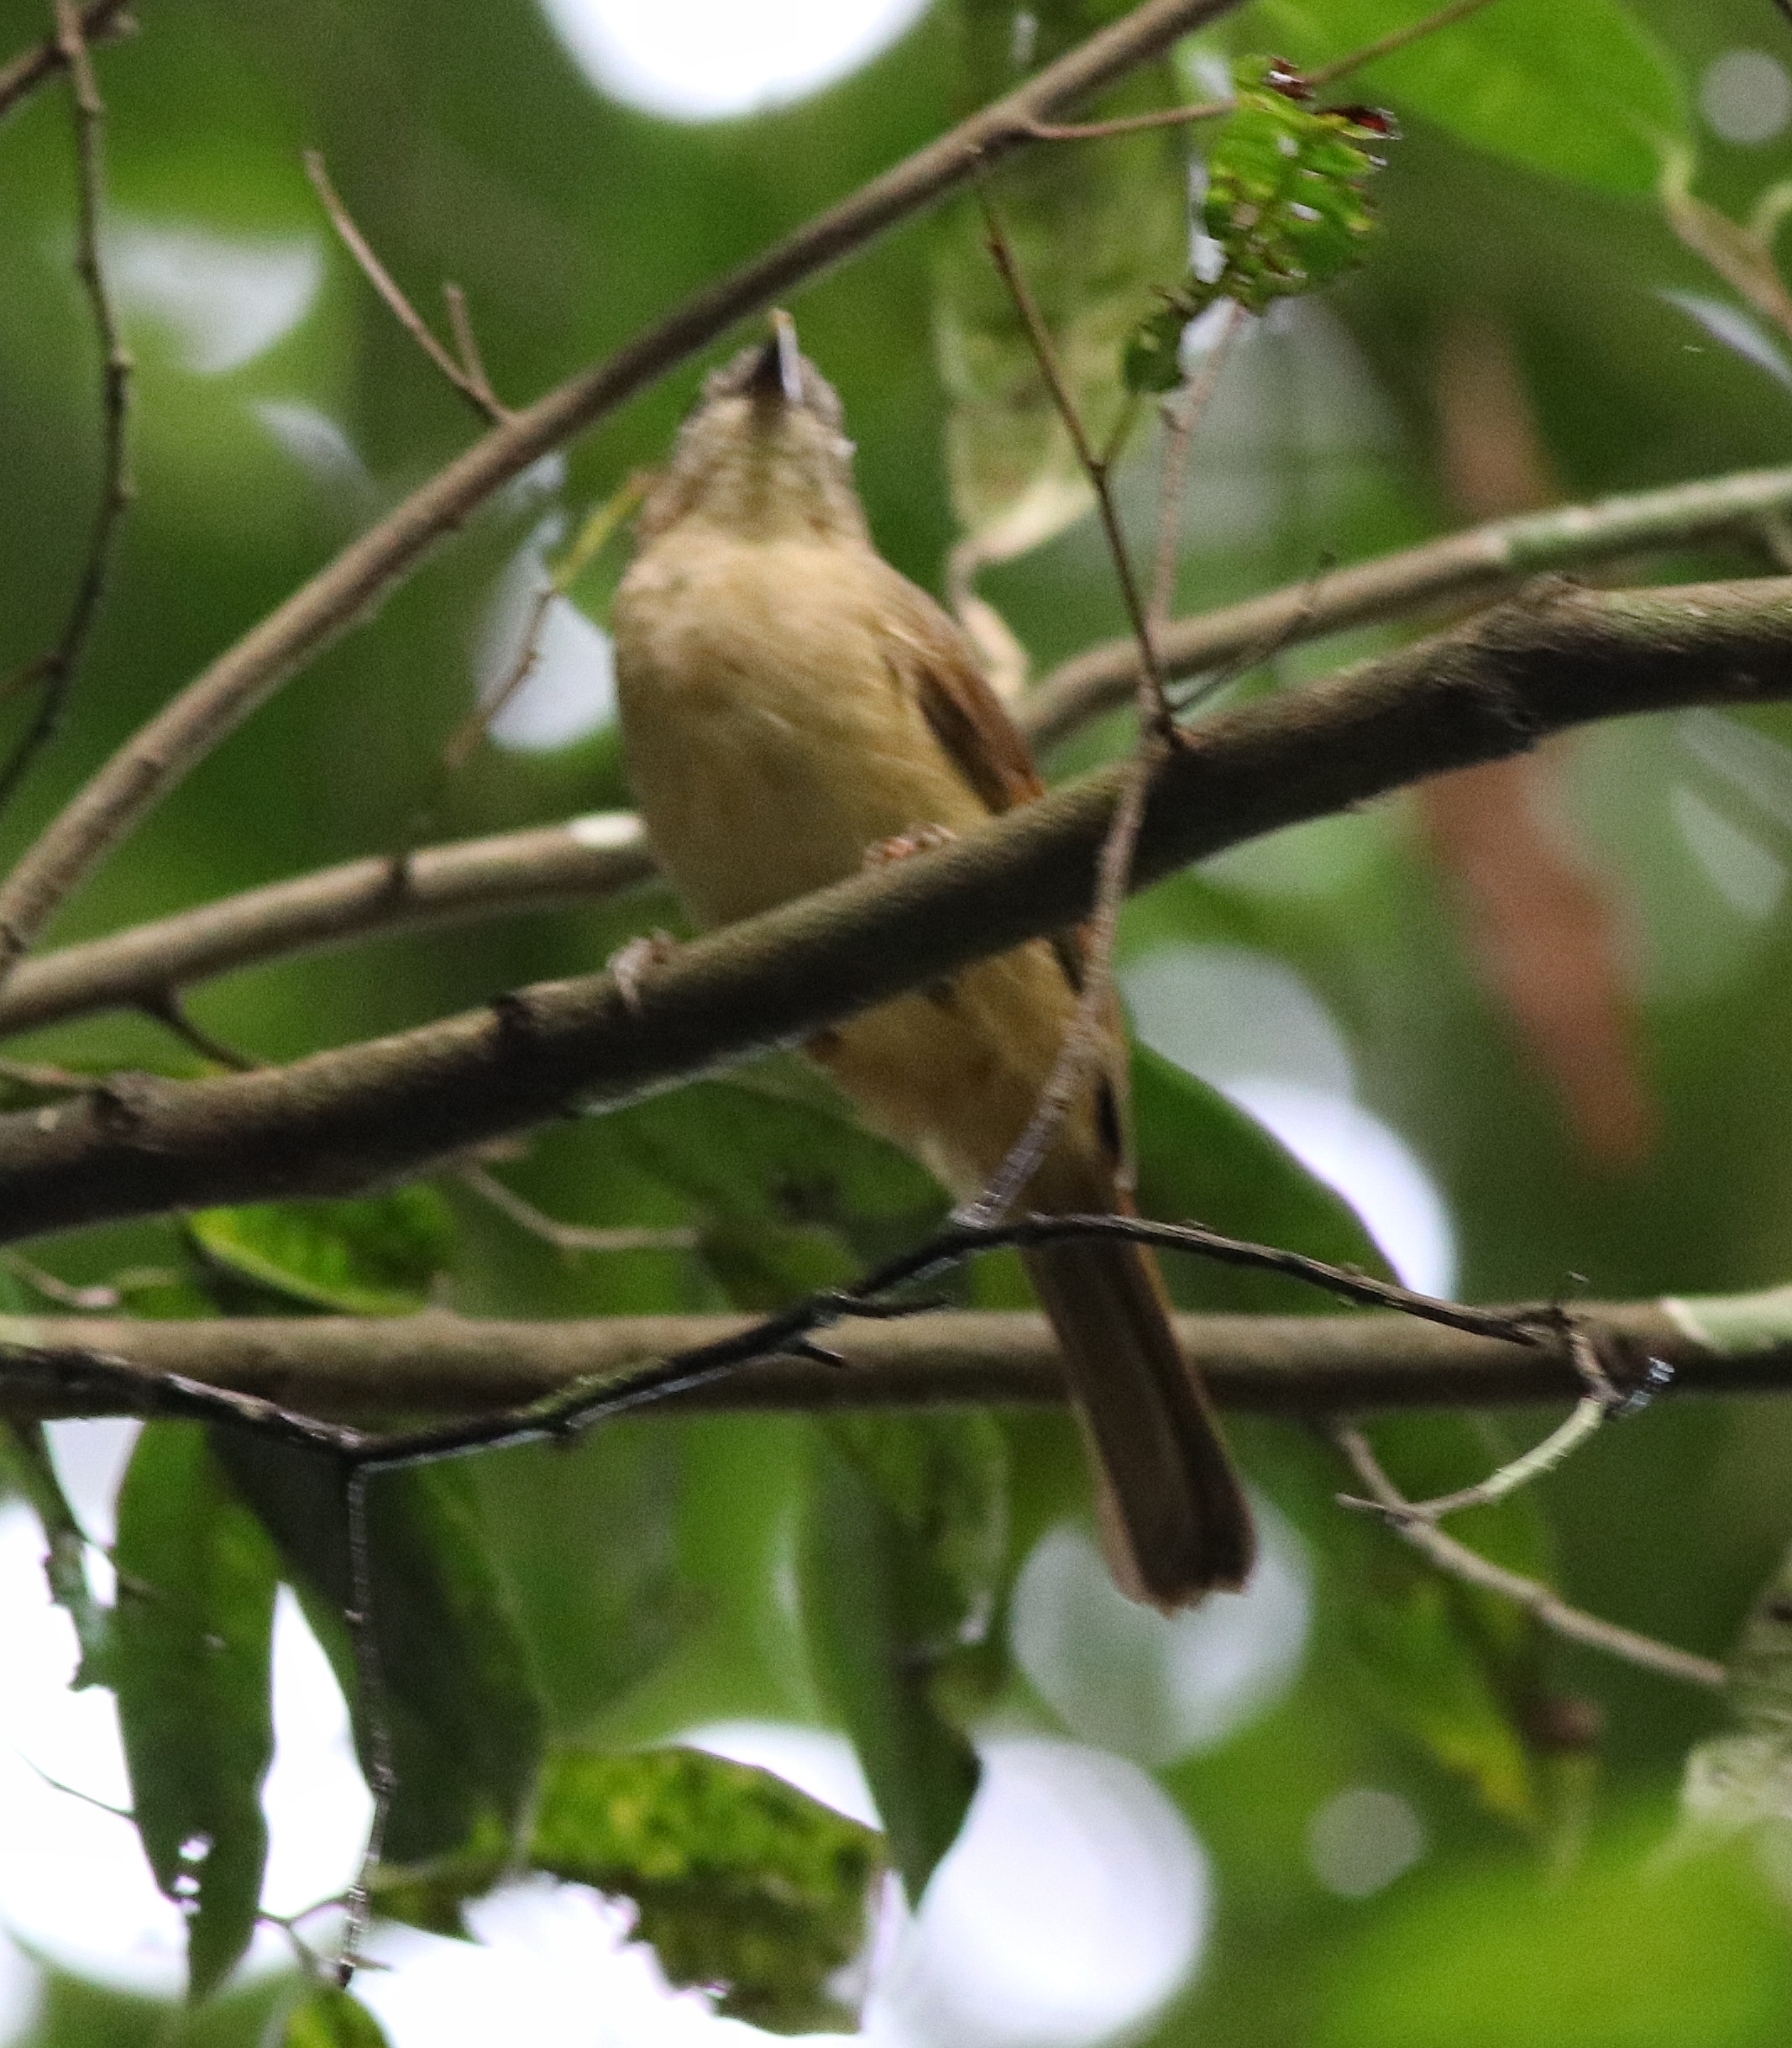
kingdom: Animalia
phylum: Chordata
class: Aves
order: Passeriformes
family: Pellorneidae
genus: Alcippe
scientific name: Alcippe poioicephala
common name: Brown-cheeked fulvetta
